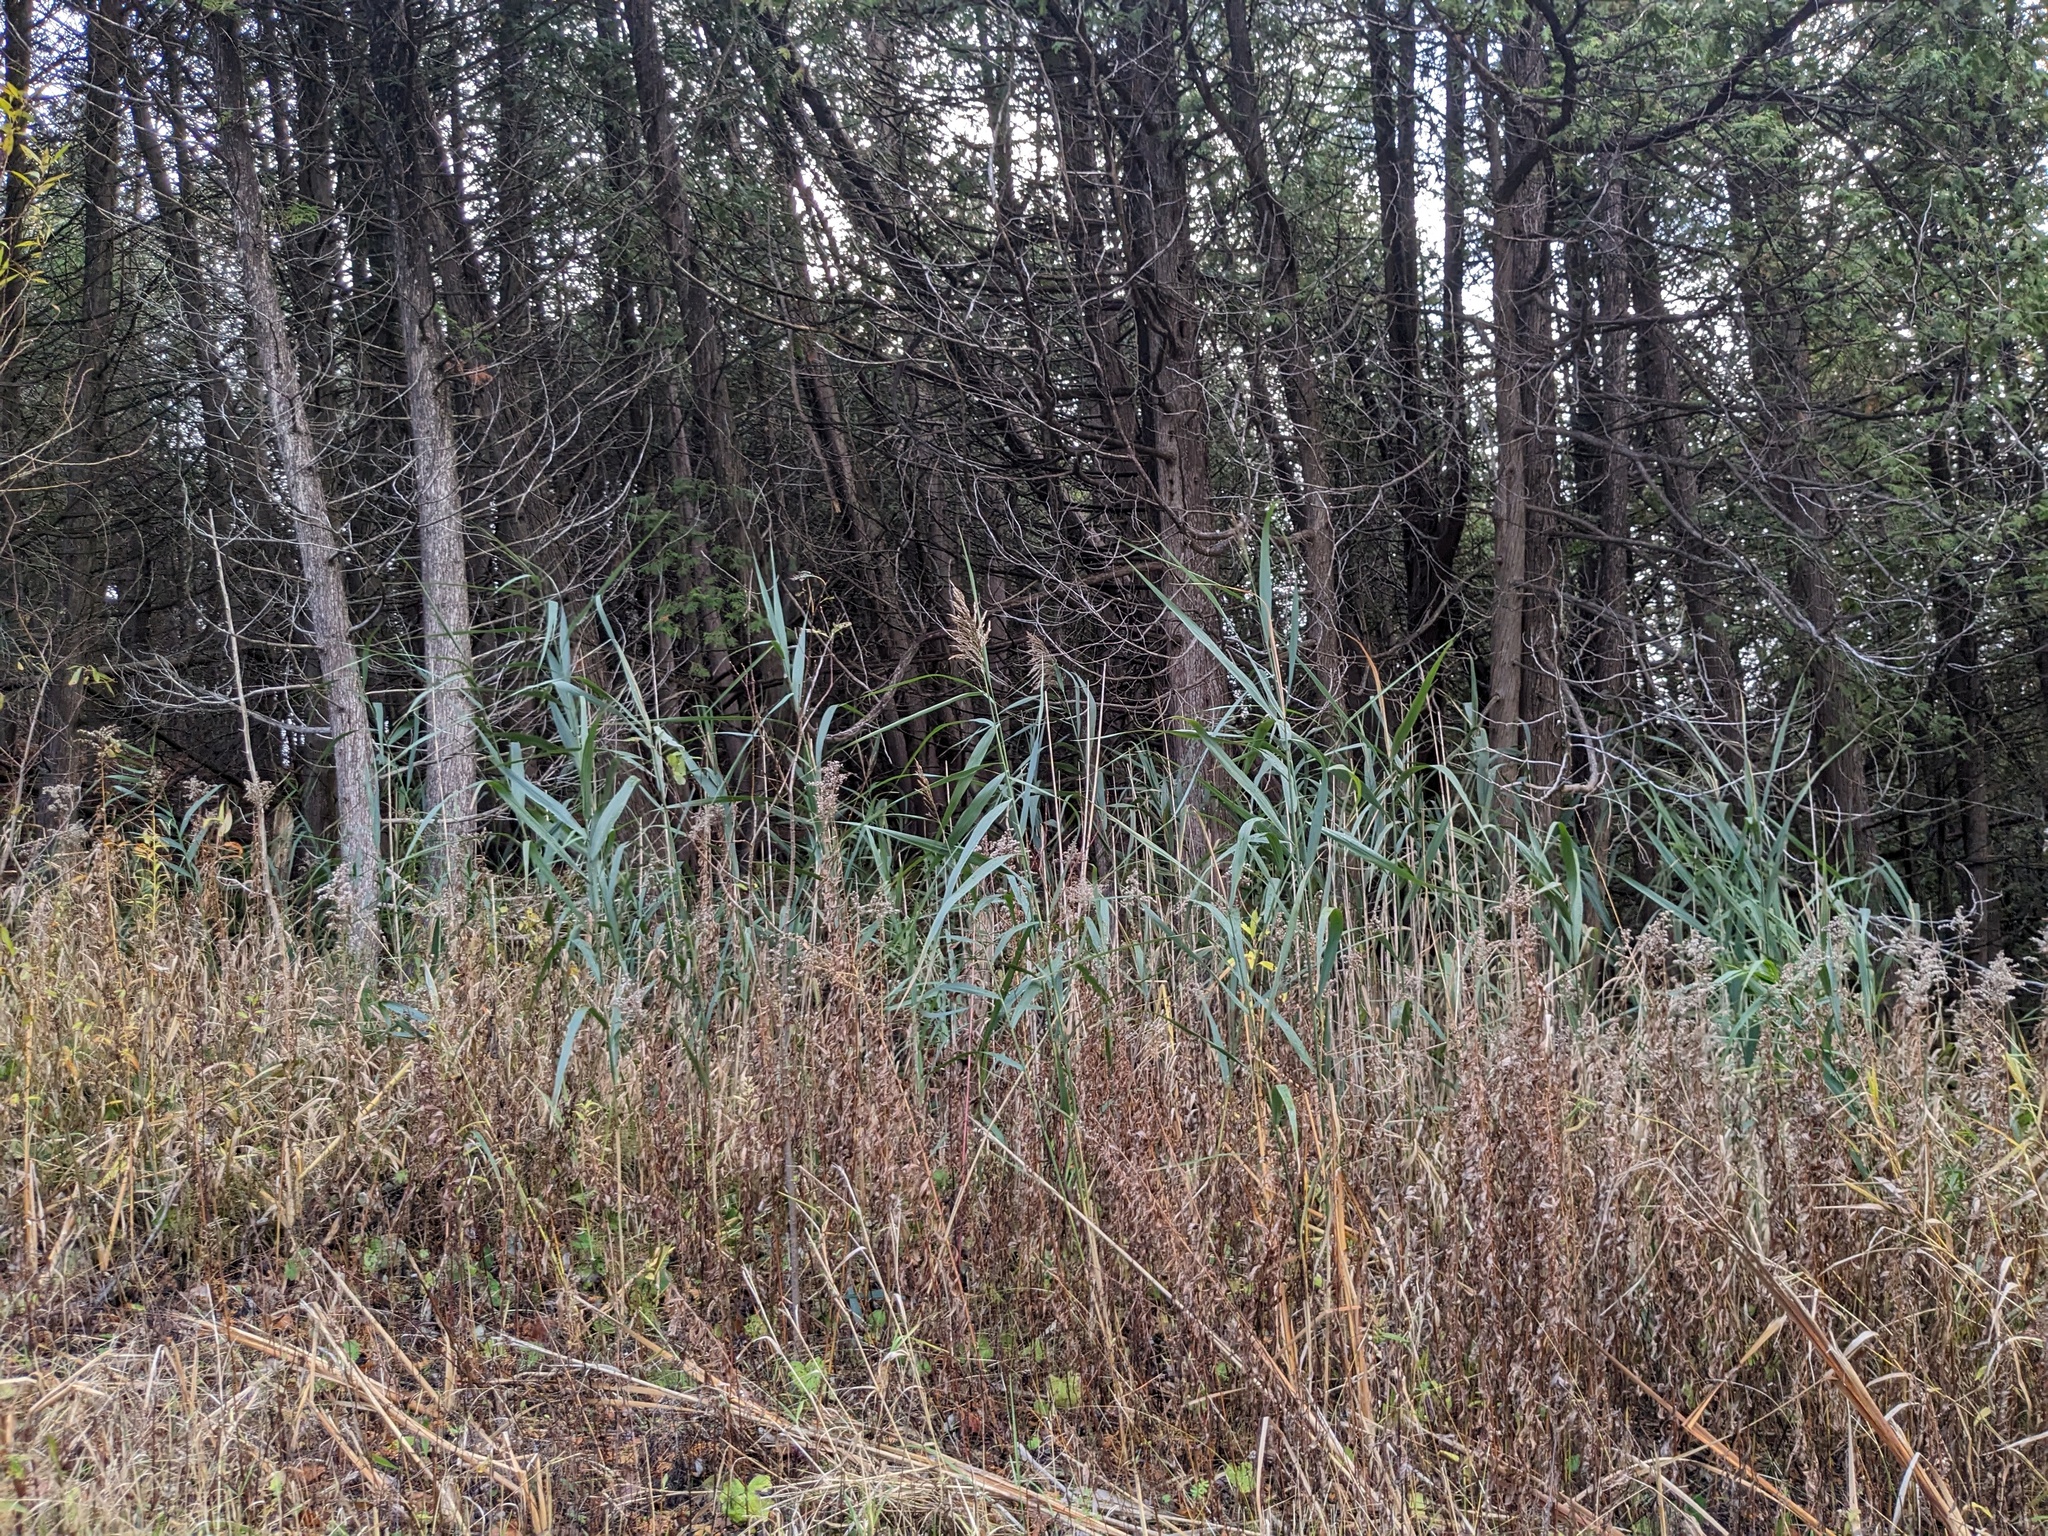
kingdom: Plantae
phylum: Tracheophyta
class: Liliopsida
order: Poales
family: Poaceae
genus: Phragmites
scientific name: Phragmites australis
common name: Common reed
